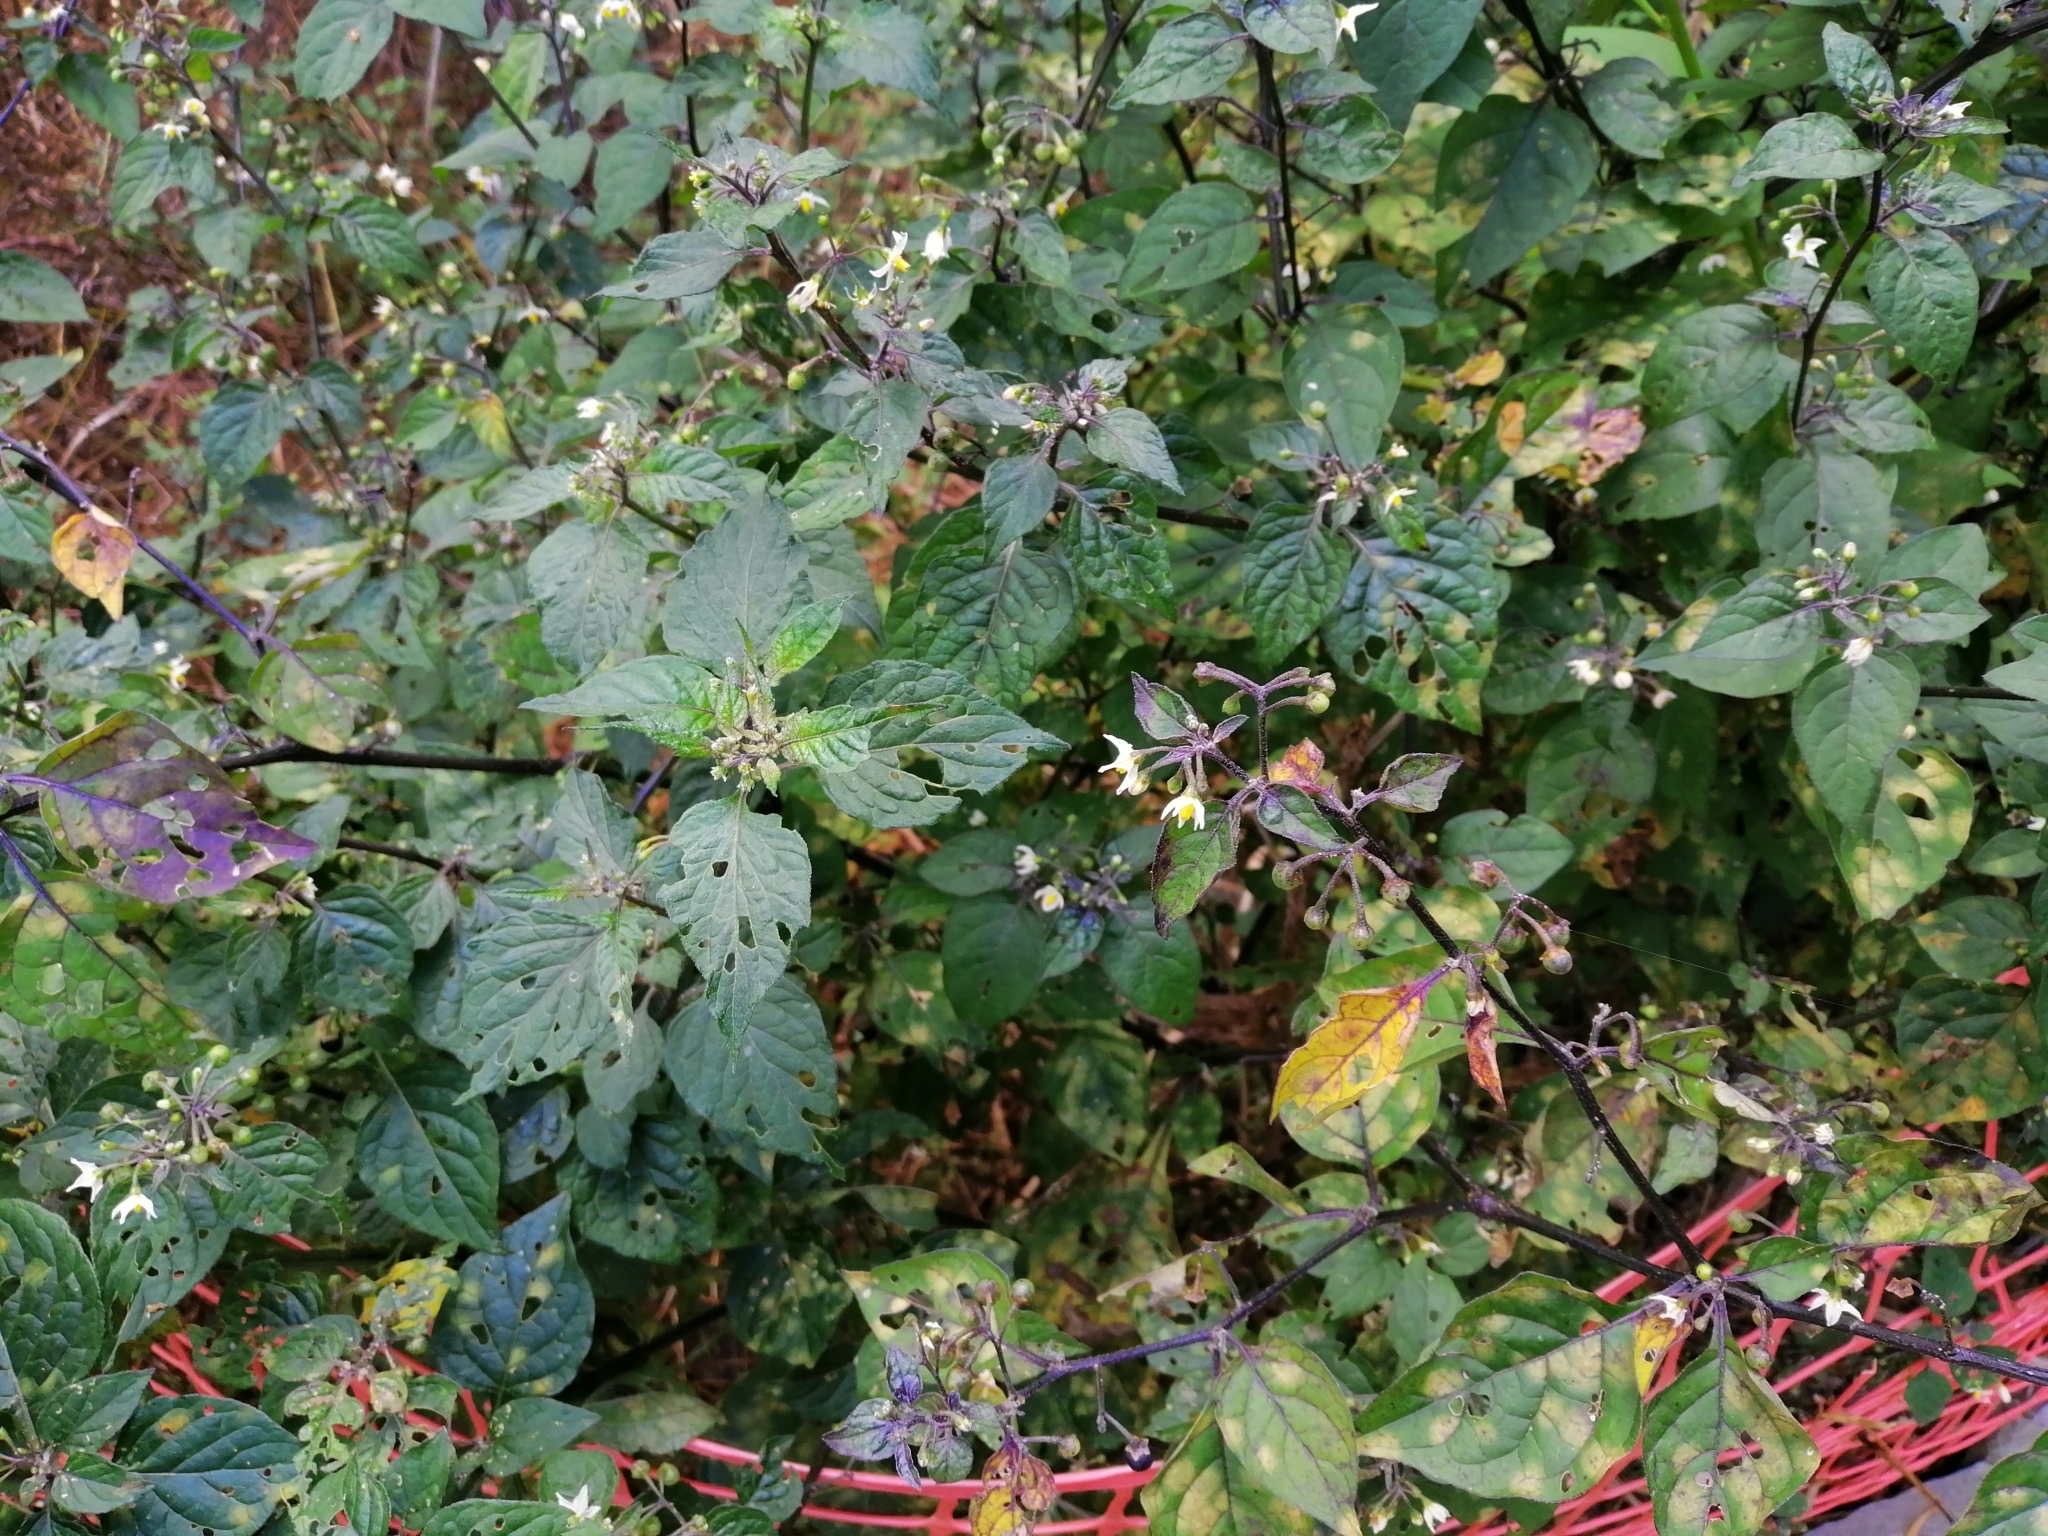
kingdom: Plantae
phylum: Tracheophyta
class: Magnoliopsida
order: Solanales
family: Solanaceae
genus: Solanum
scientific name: Solanum nigrum
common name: Black nightshade
